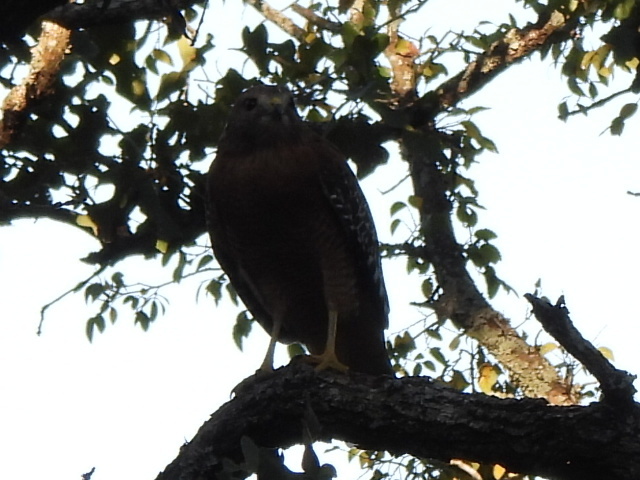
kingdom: Animalia
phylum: Chordata
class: Aves
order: Accipitriformes
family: Accipitridae
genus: Buteo
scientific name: Buteo lineatus
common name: Red-shouldered hawk
